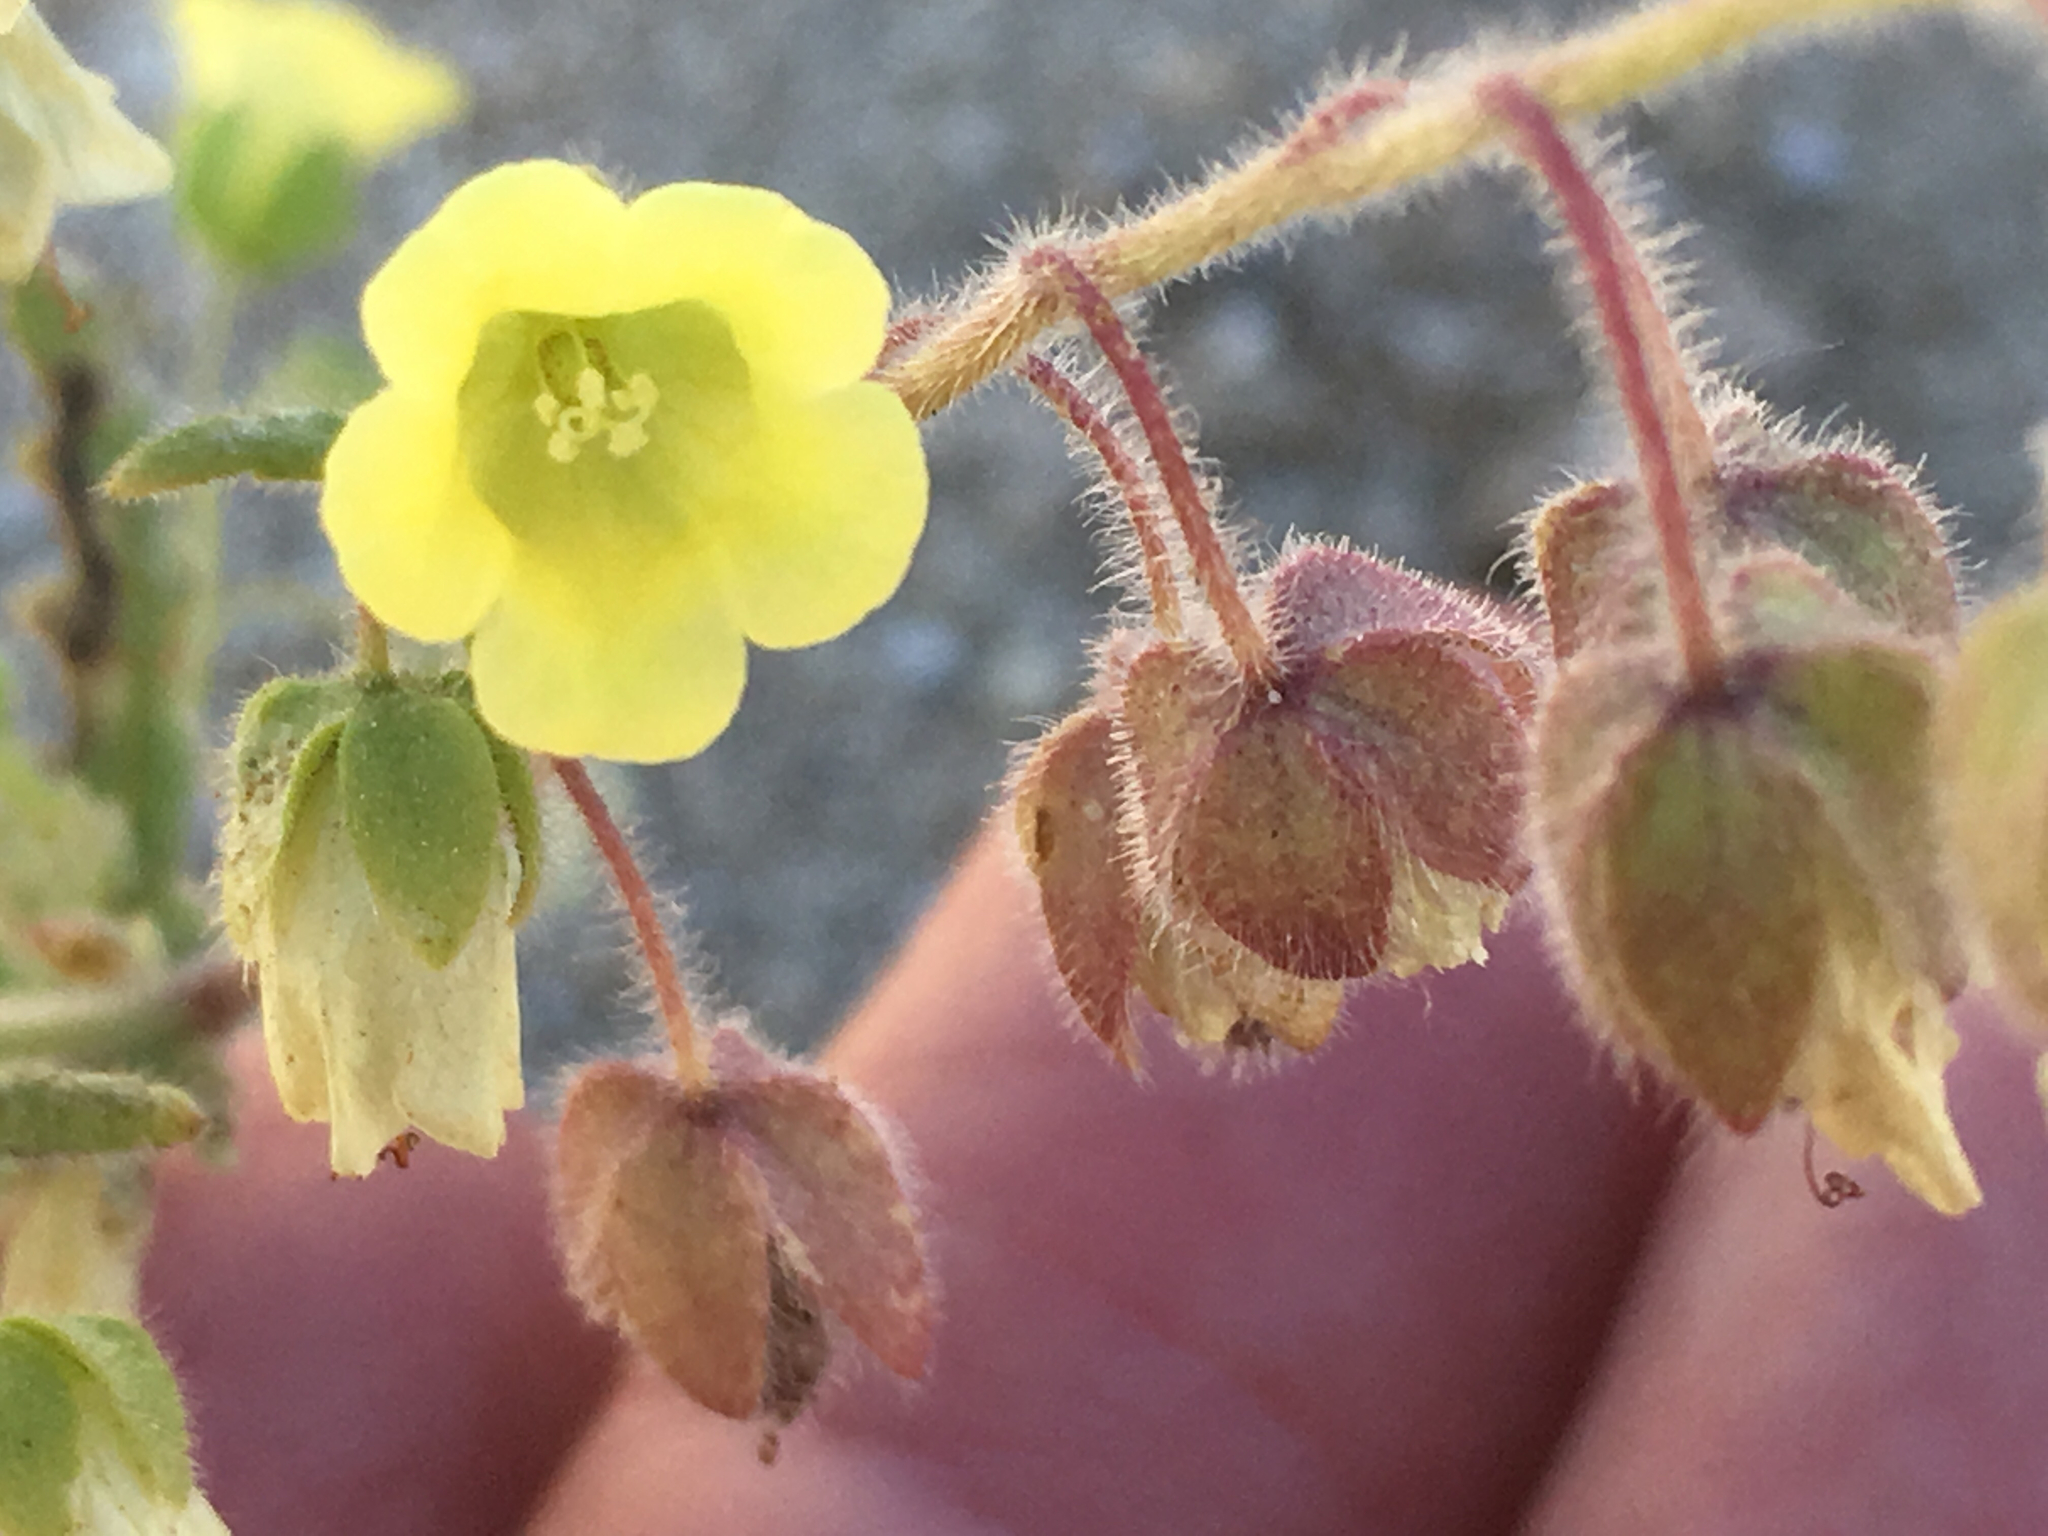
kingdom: Plantae
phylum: Tracheophyta
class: Magnoliopsida
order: Boraginales
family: Hydrophyllaceae
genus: Emmenanthe
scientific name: Emmenanthe penduliflora
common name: Whispering-bells
